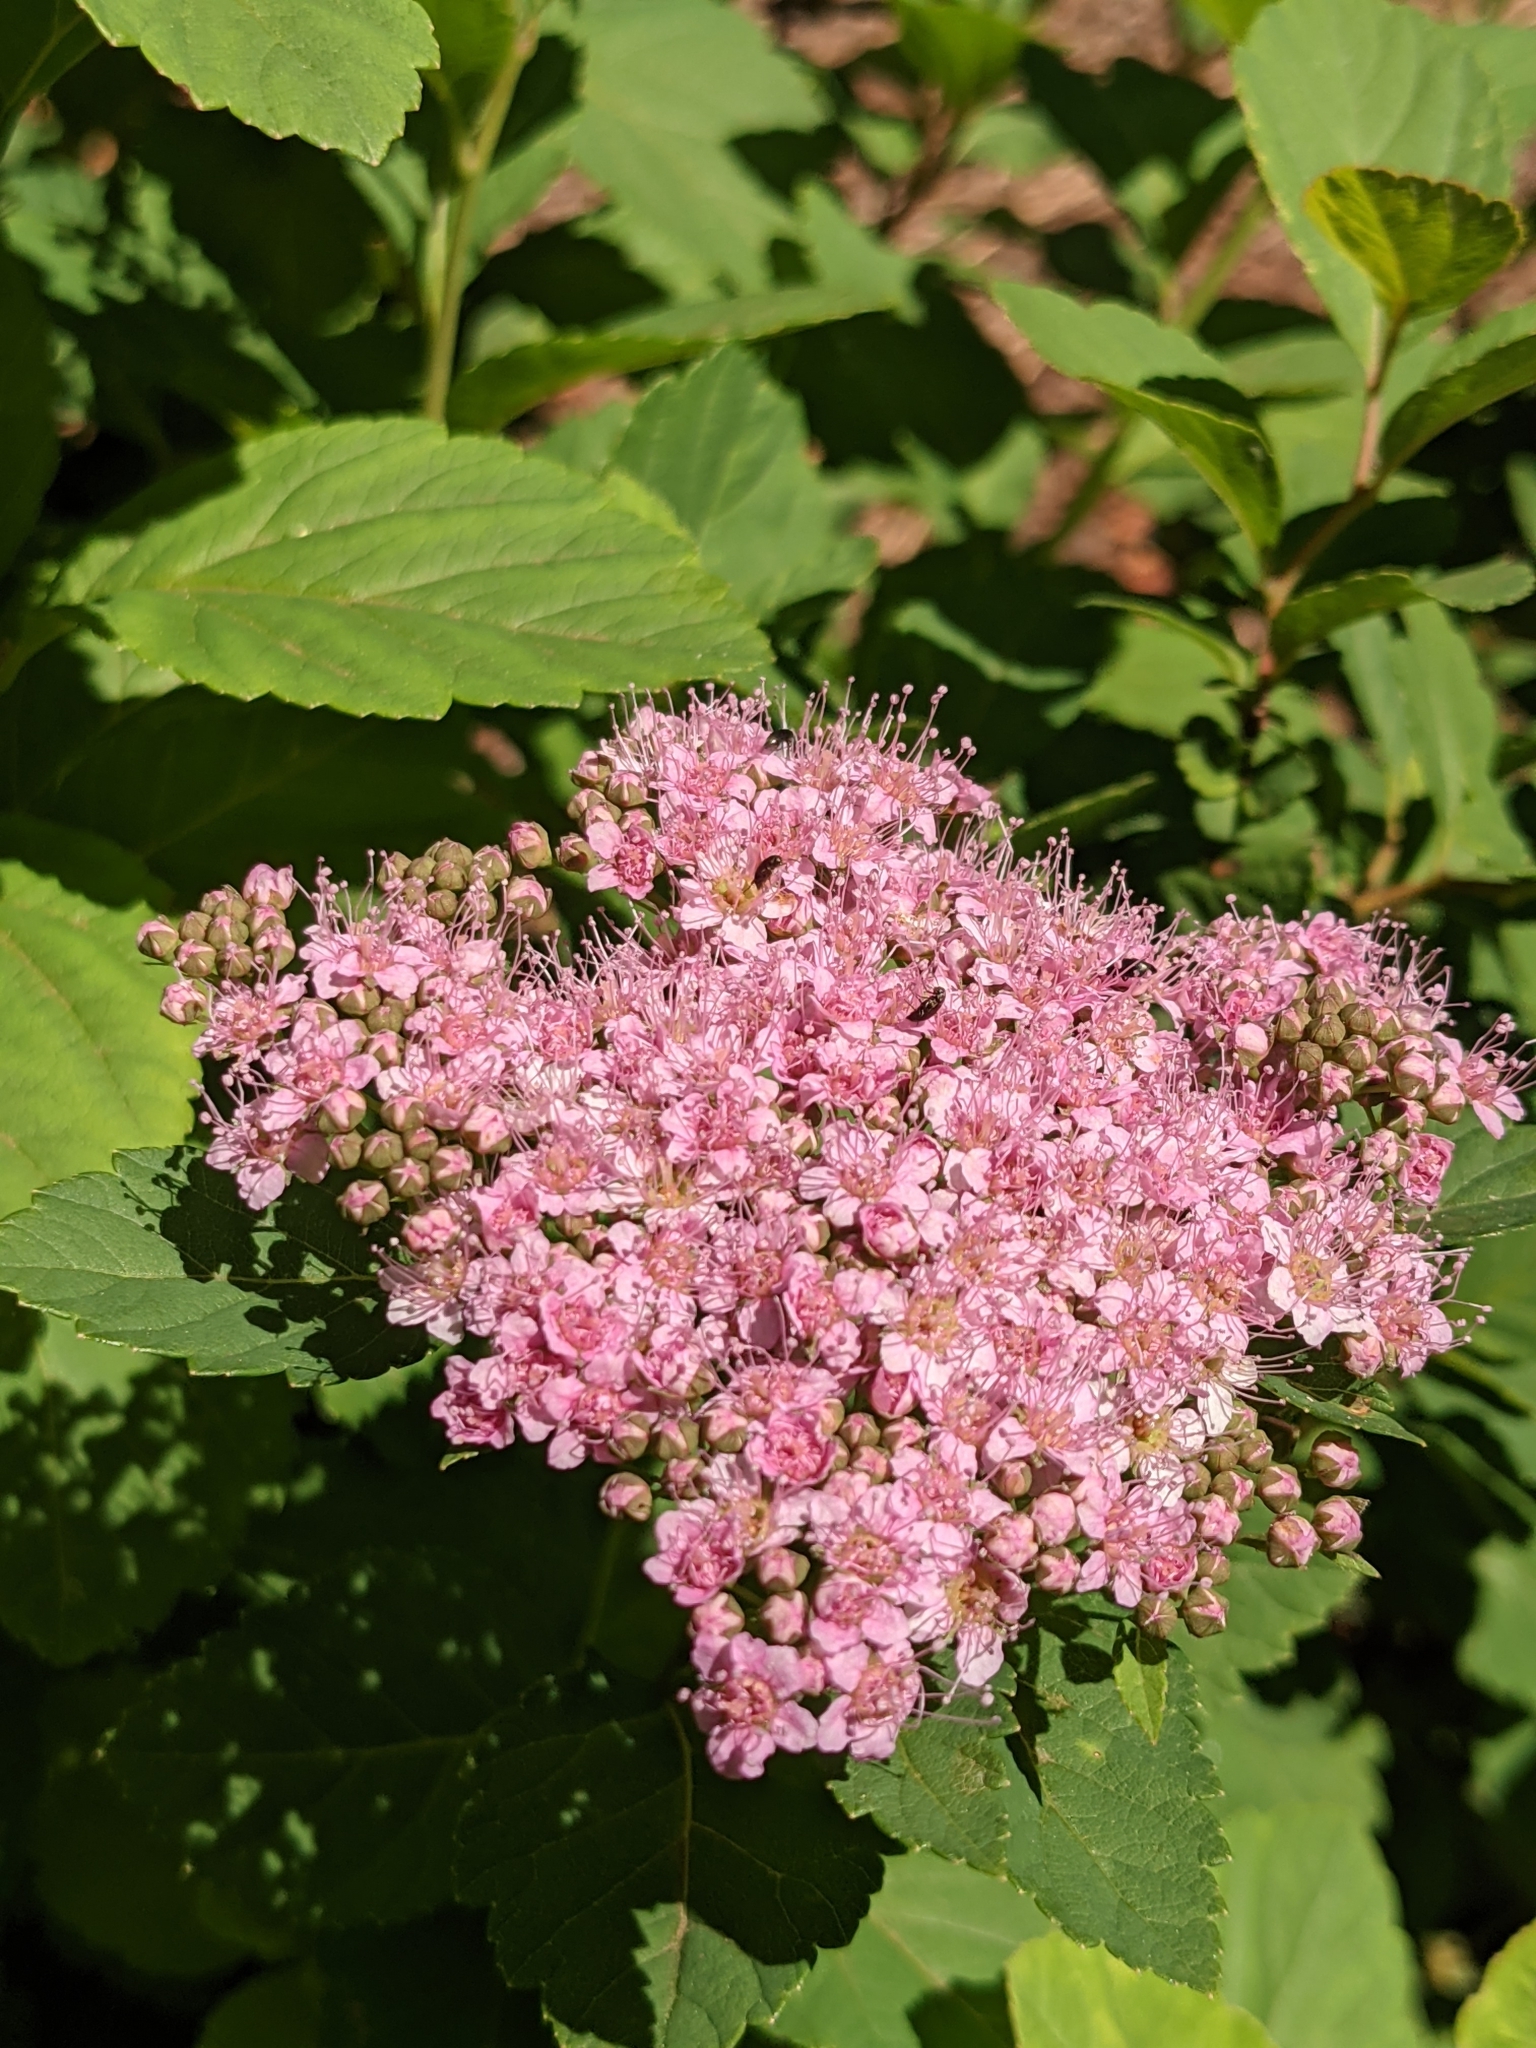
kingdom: Plantae
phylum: Tracheophyta
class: Magnoliopsida
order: Rosales
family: Rosaceae
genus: Spiraea
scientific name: Spiraea splendens
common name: Subalpine meadowsweet
